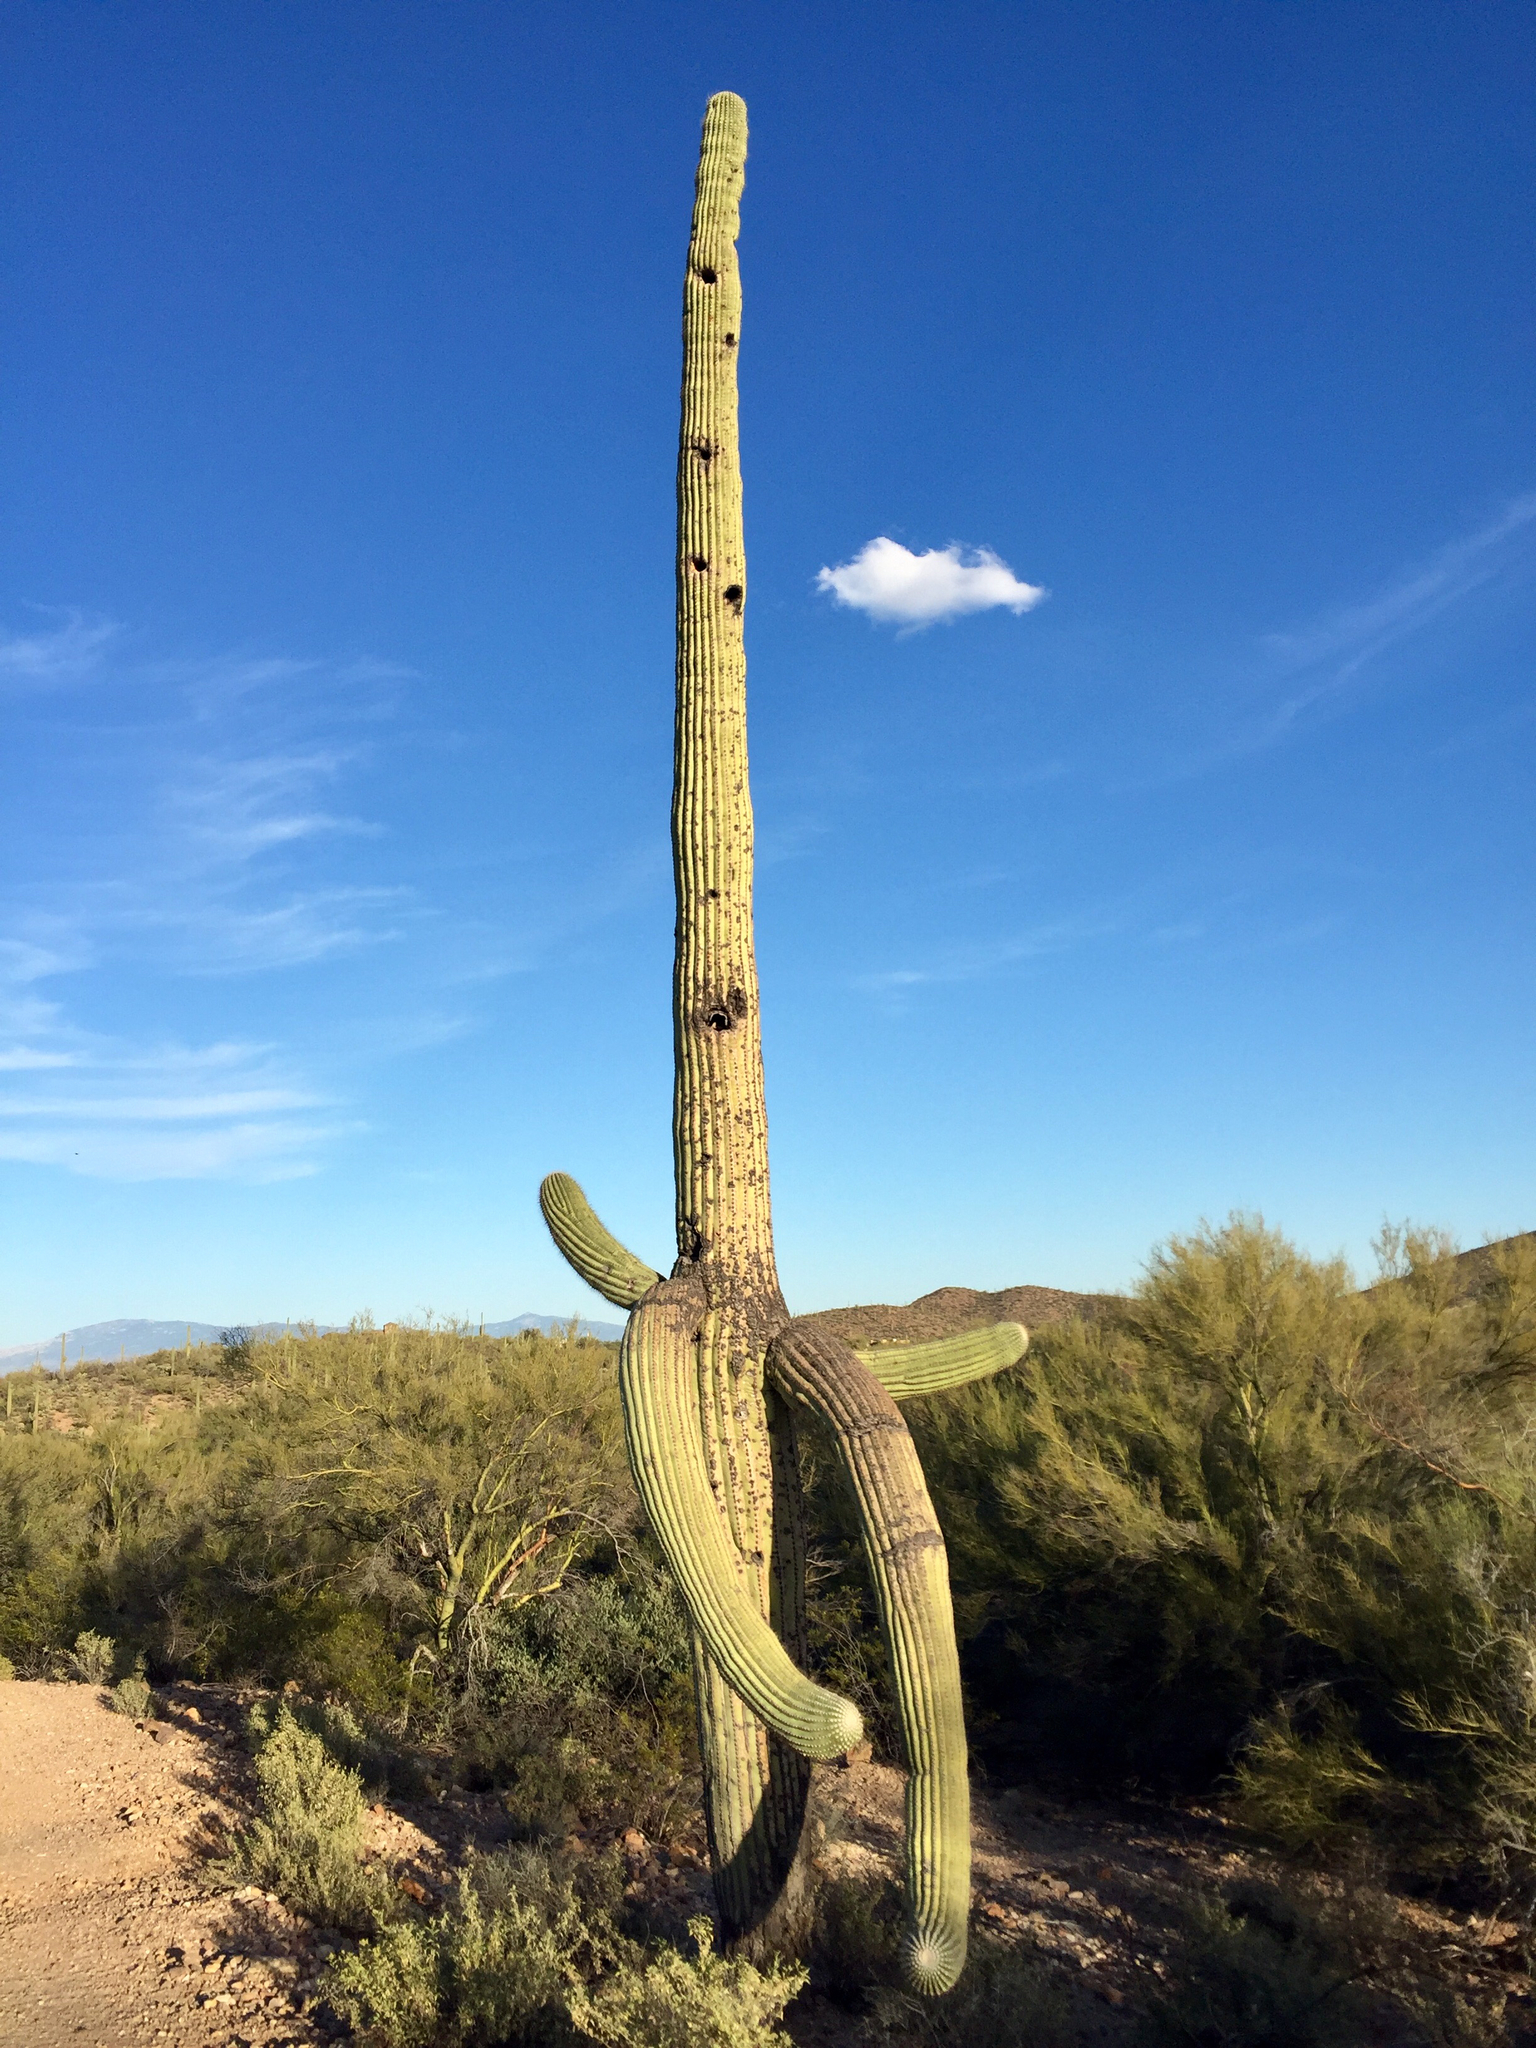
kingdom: Plantae
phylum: Tracheophyta
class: Magnoliopsida
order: Caryophyllales
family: Cactaceae
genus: Carnegiea
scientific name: Carnegiea gigantea
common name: Saguaro
